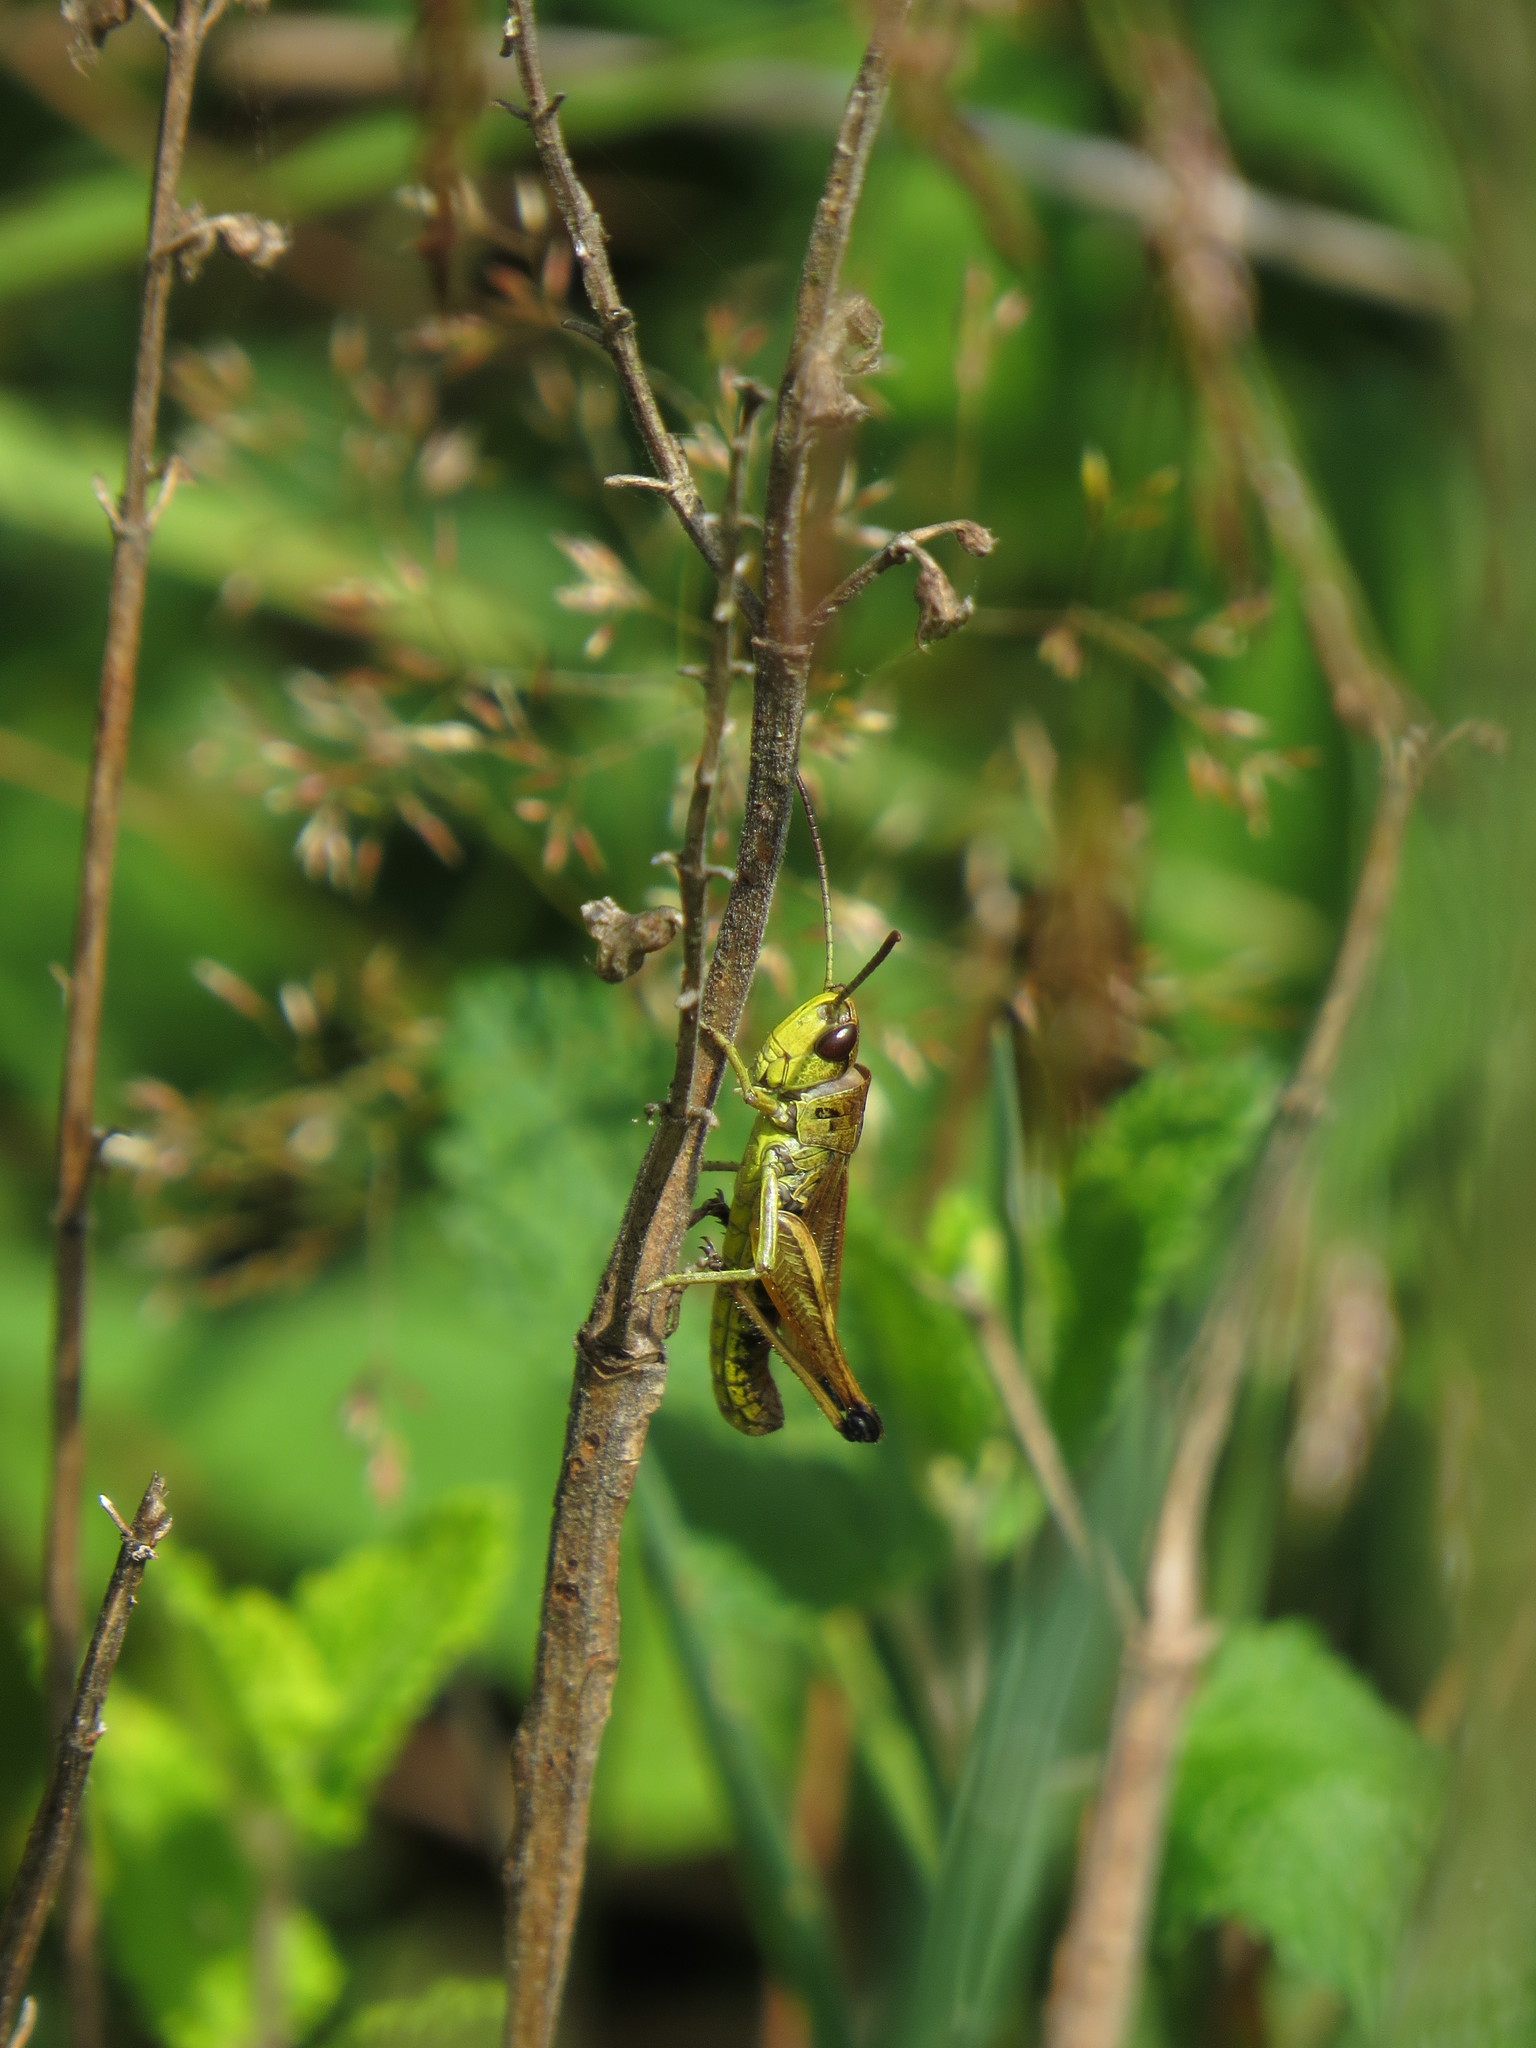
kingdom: Animalia
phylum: Arthropoda
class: Insecta
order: Orthoptera
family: Acrididae
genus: Pseudochorthippus
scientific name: Pseudochorthippus parallelus
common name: Meadow grasshopper
